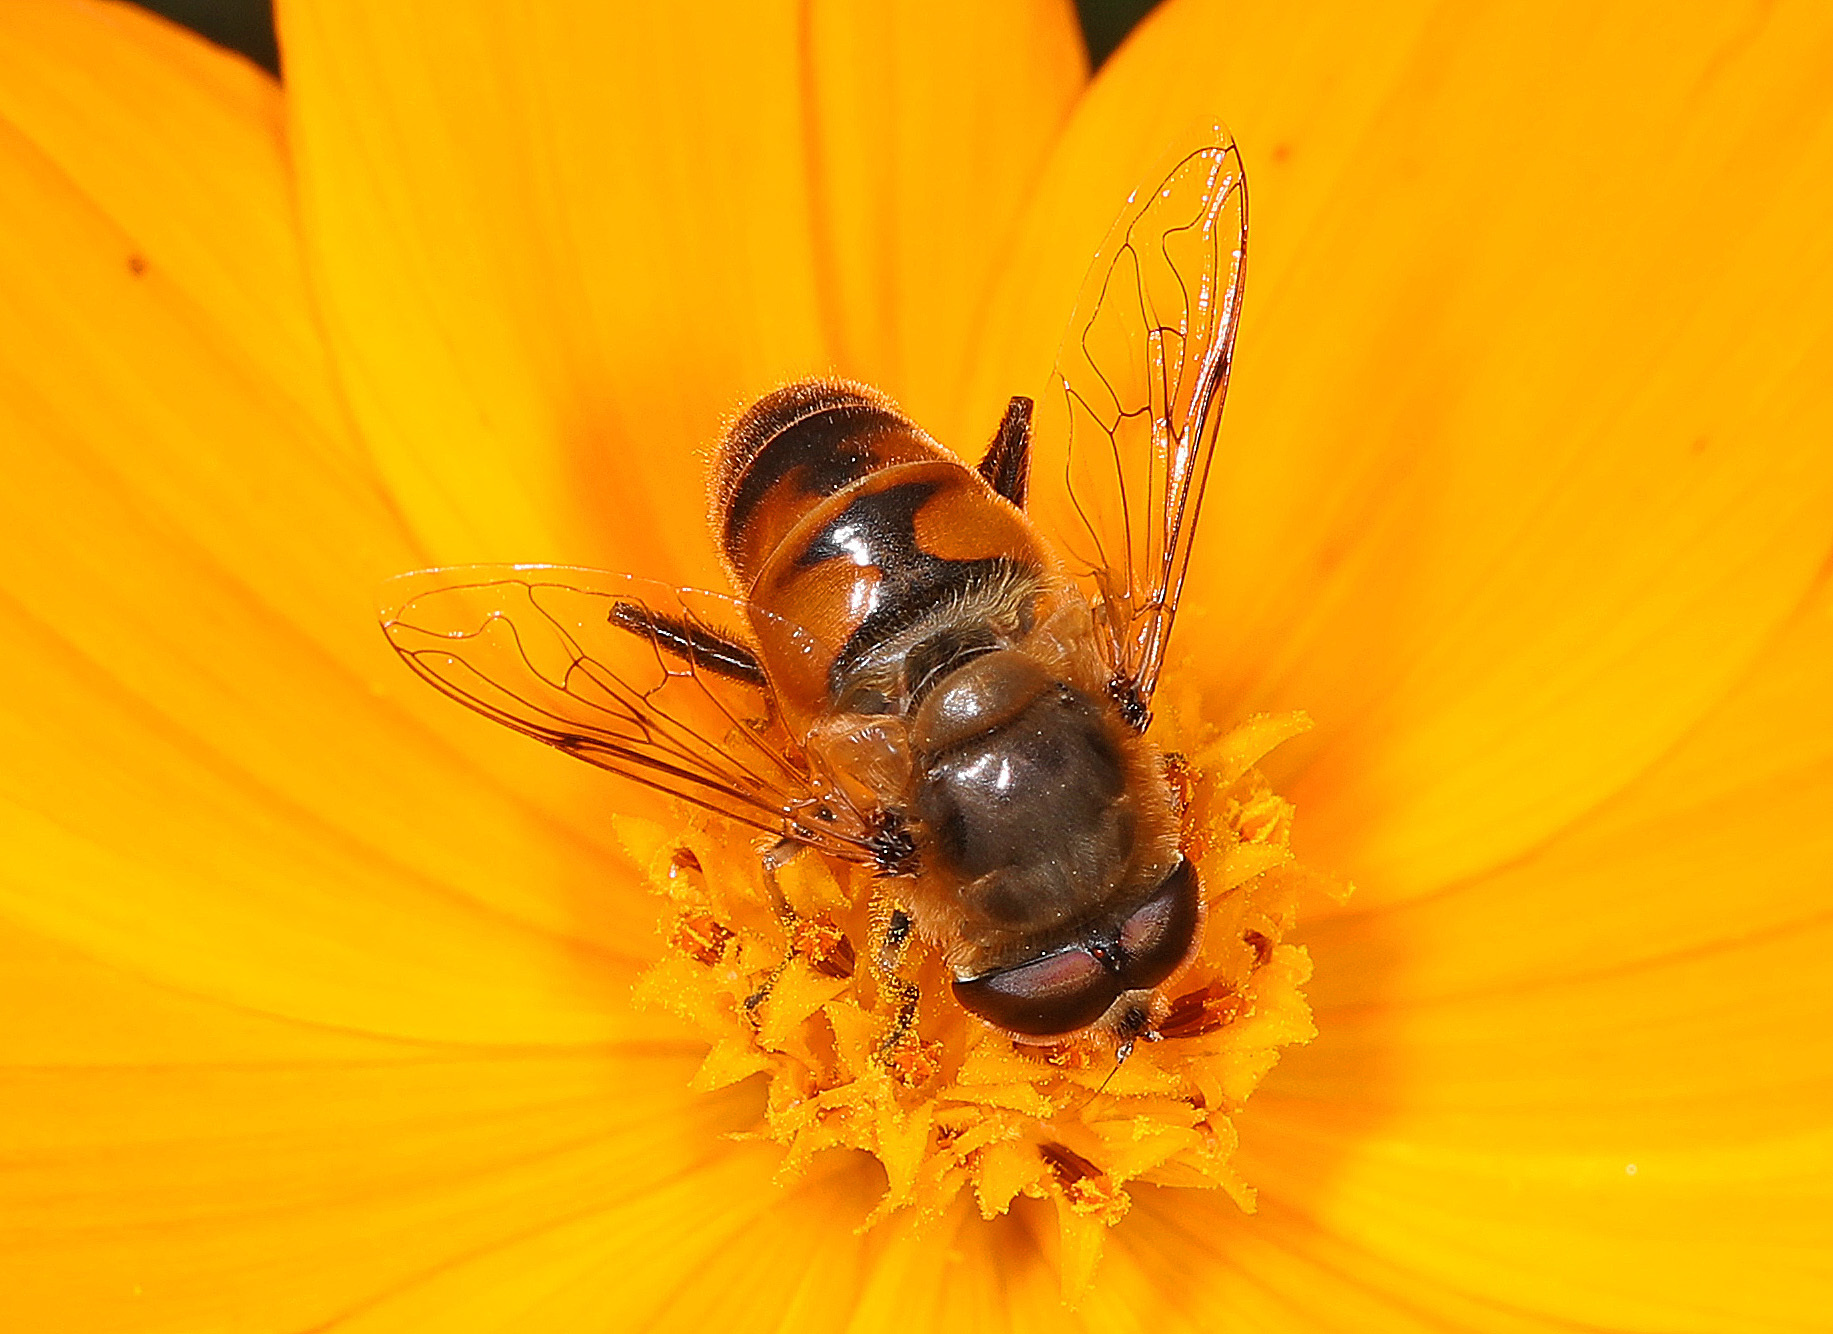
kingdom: Animalia
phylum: Arthropoda
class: Insecta
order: Diptera
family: Syrphidae
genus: Eristalis
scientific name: Eristalis tenax
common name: Drone fly
